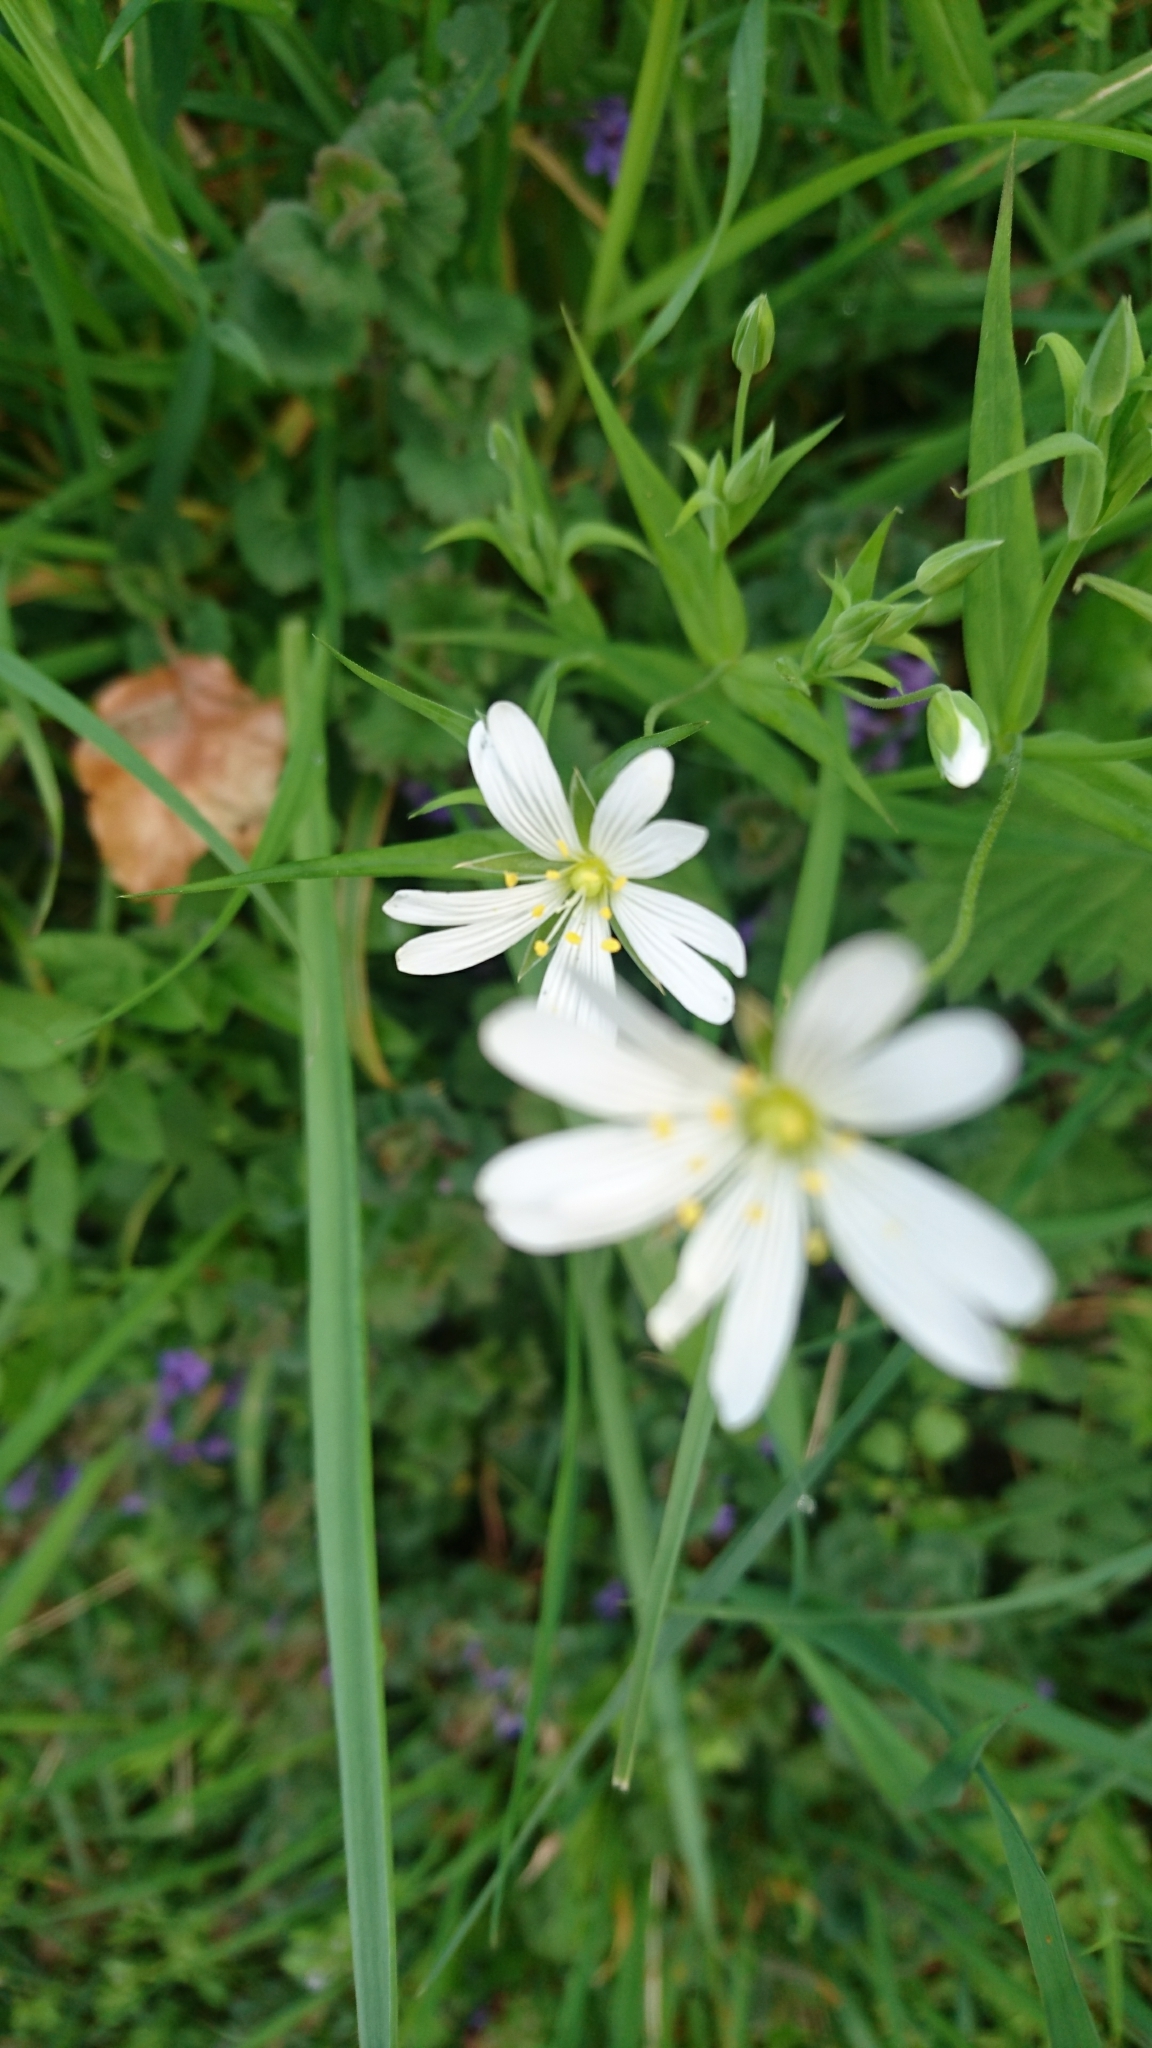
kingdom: Plantae
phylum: Tracheophyta
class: Magnoliopsida
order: Caryophyllales
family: Caryophyllaceae
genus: Rabelera
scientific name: Rabelera holostea
